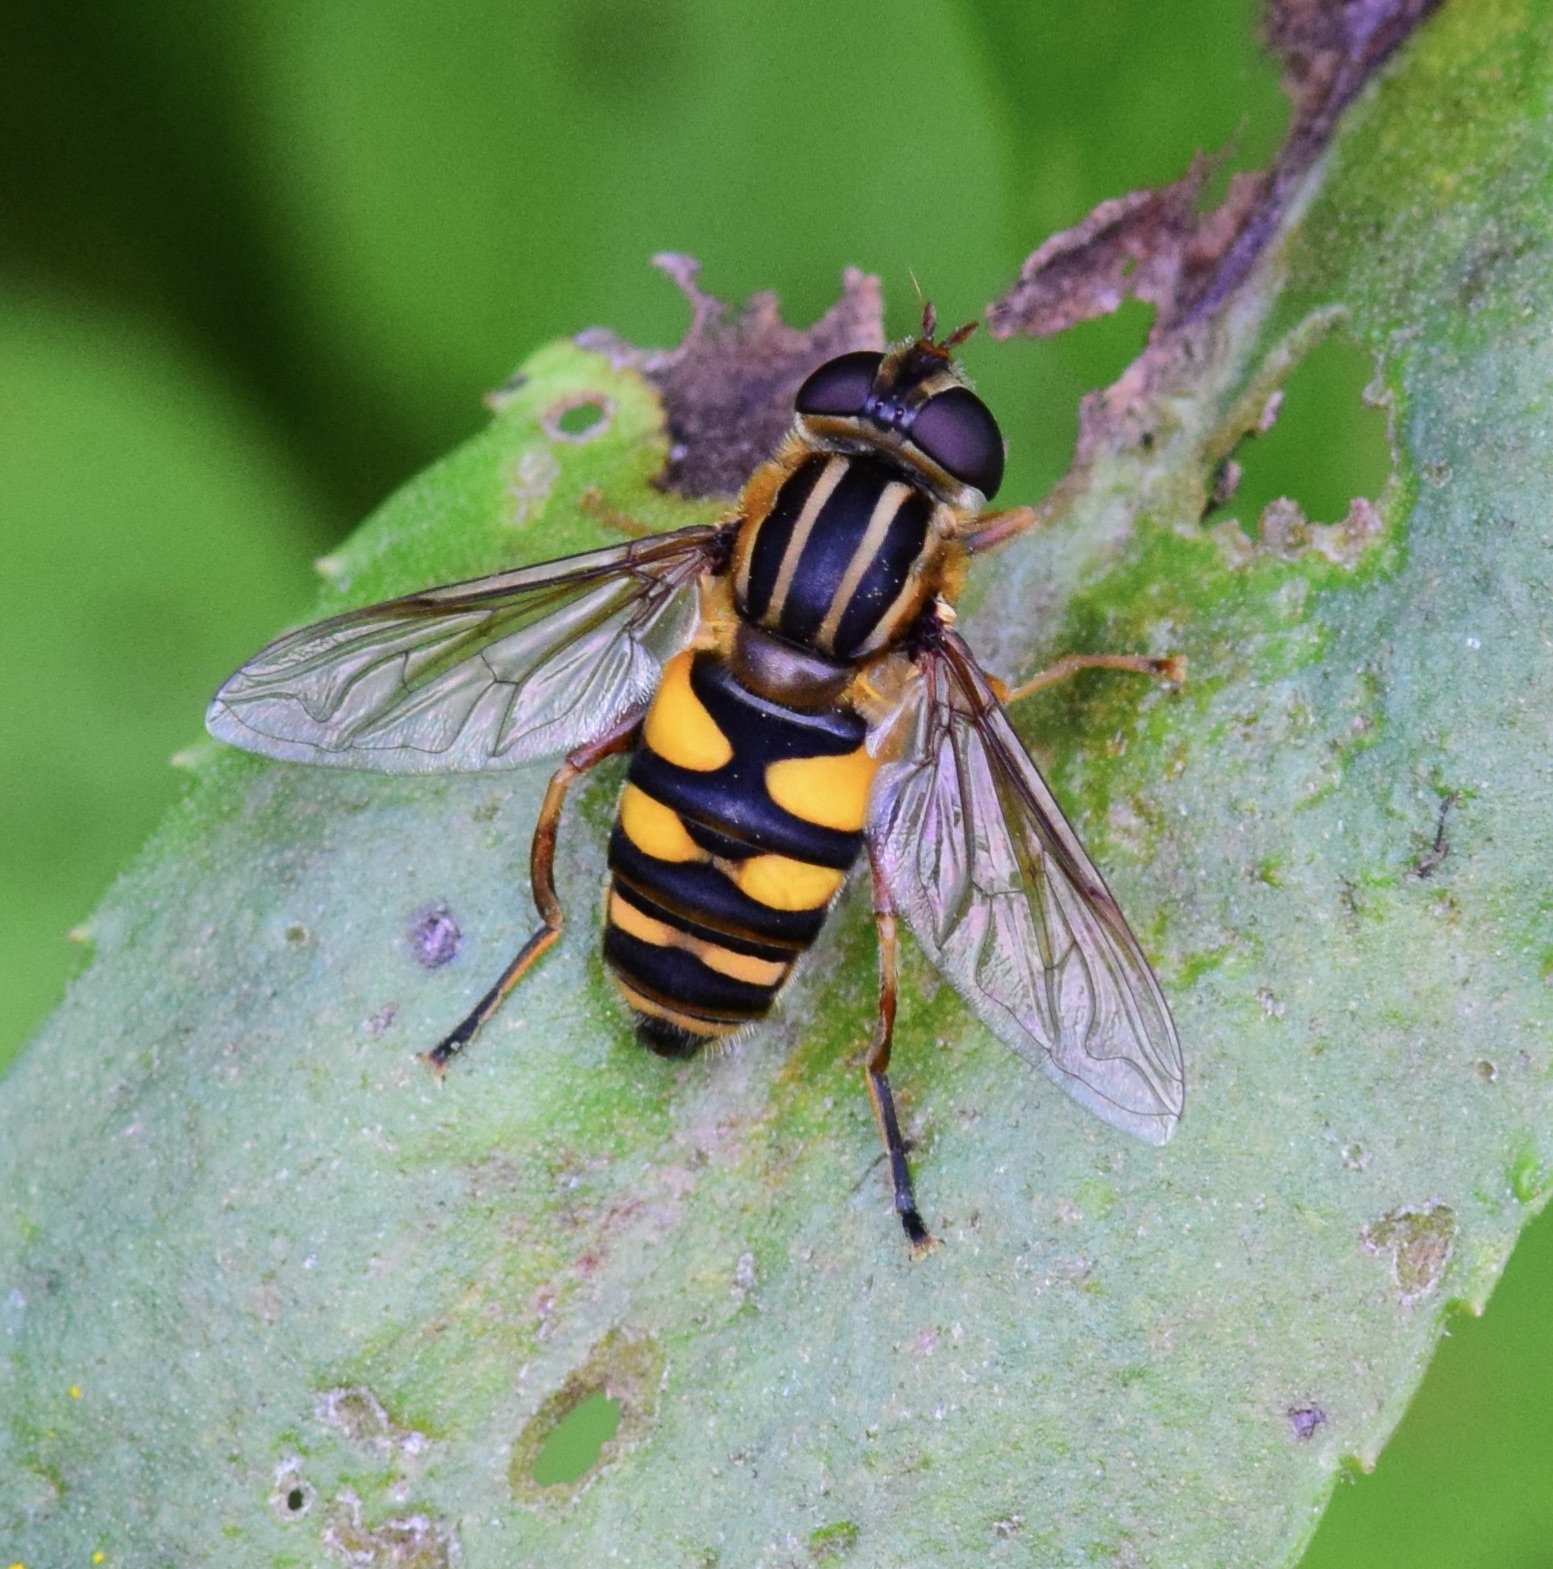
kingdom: Animalia
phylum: Arthropoda
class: Insecta
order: Diptera
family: Syrphidae
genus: Helophilus
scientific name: Helophilus fasciatus
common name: Narrow-headed marsh fly
